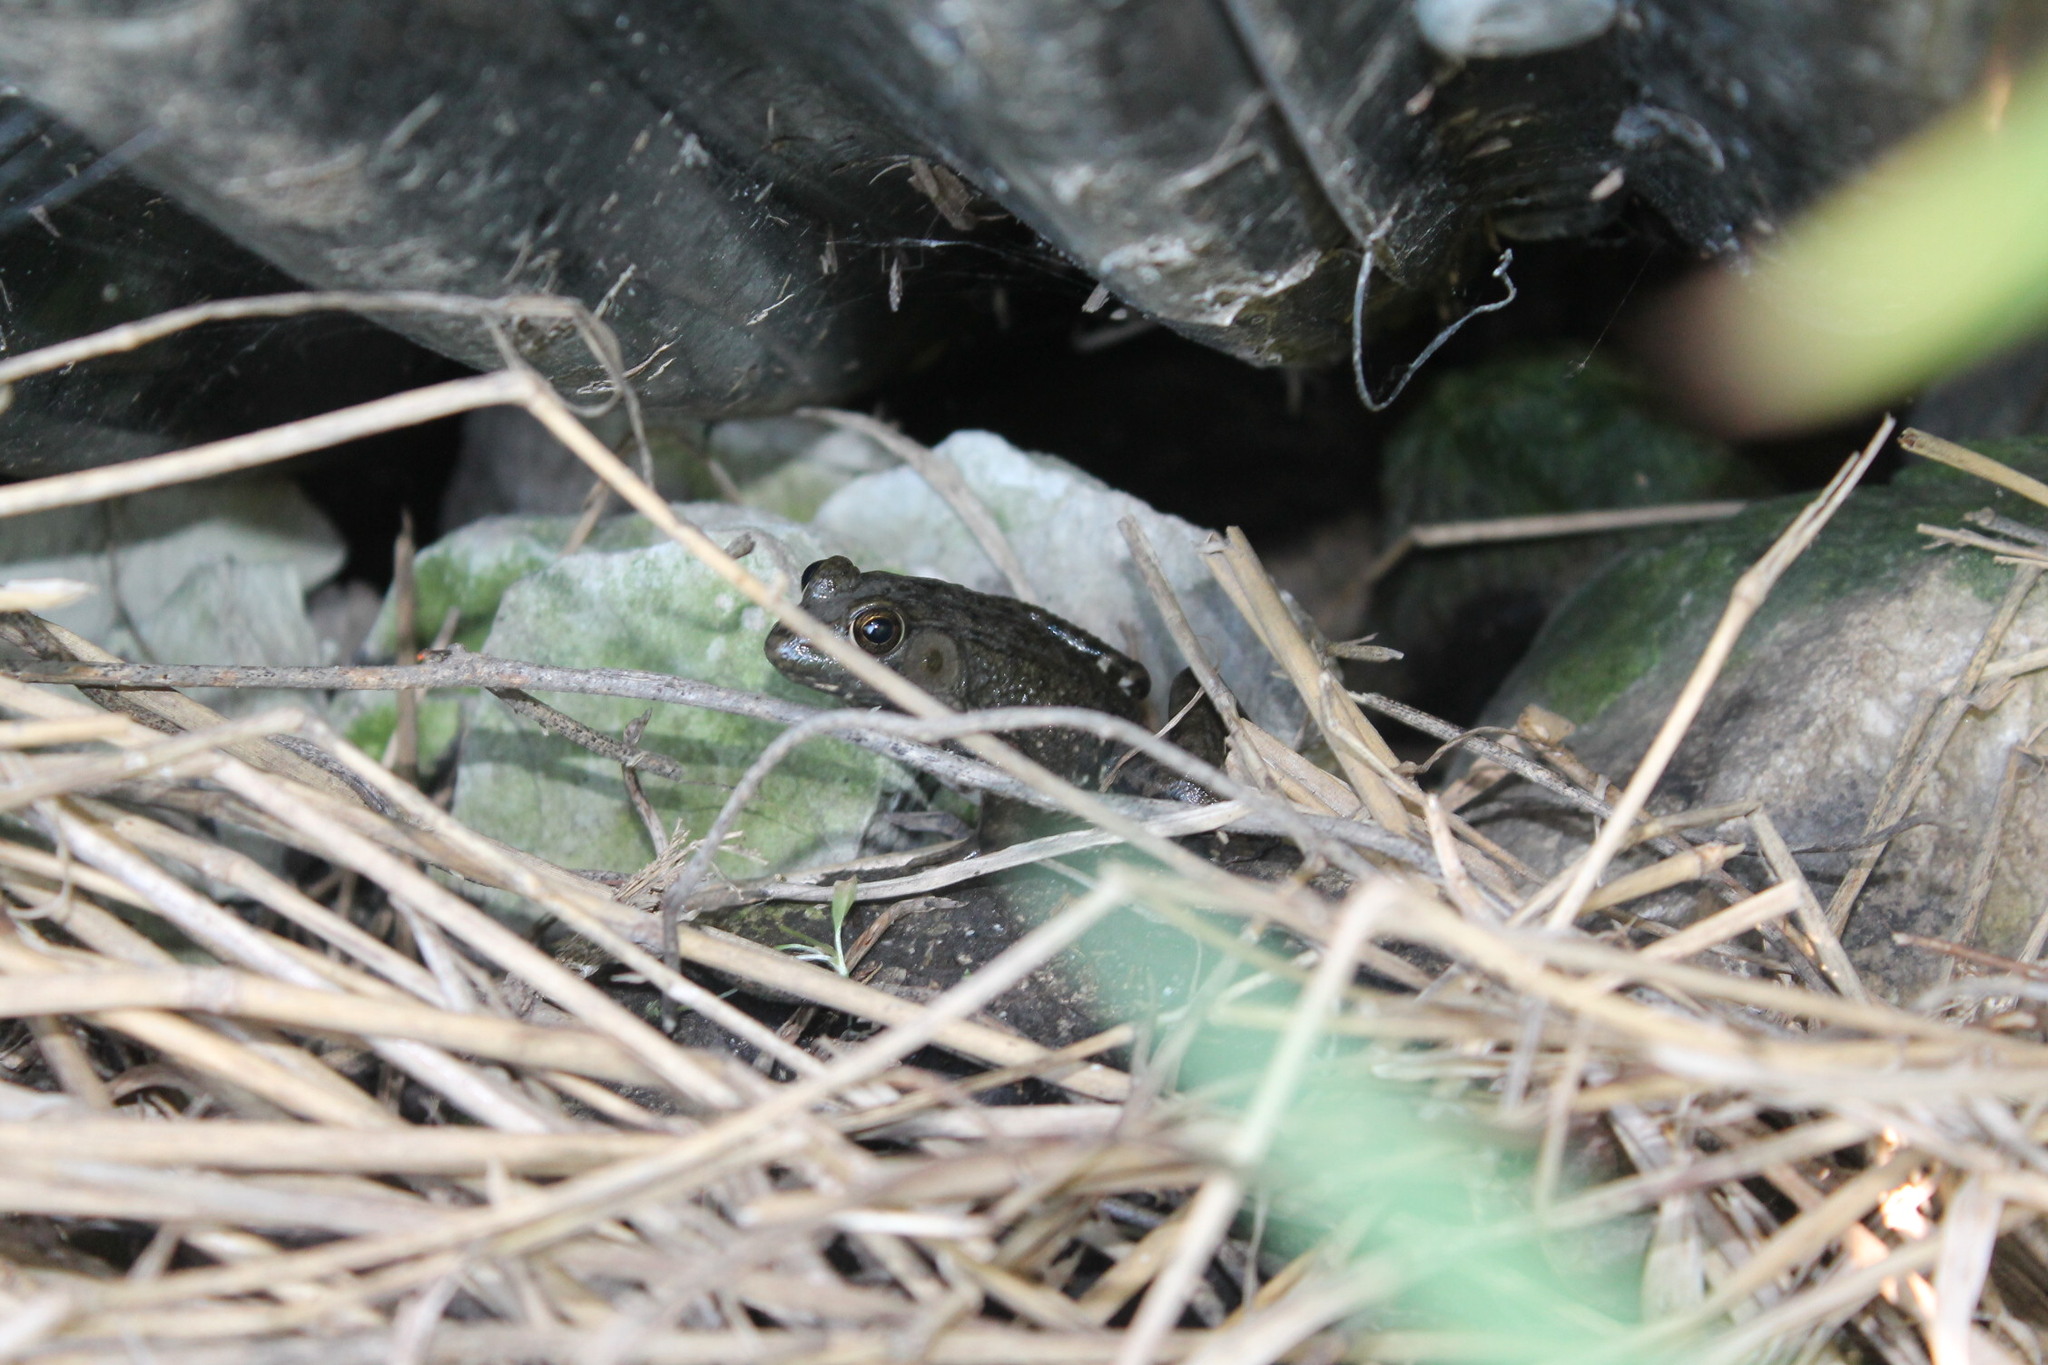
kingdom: Animalia
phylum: Chordata
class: Amphibia
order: Anura
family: Ranidae
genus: Lithobates
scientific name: Lithobates clamitans
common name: Green frog
